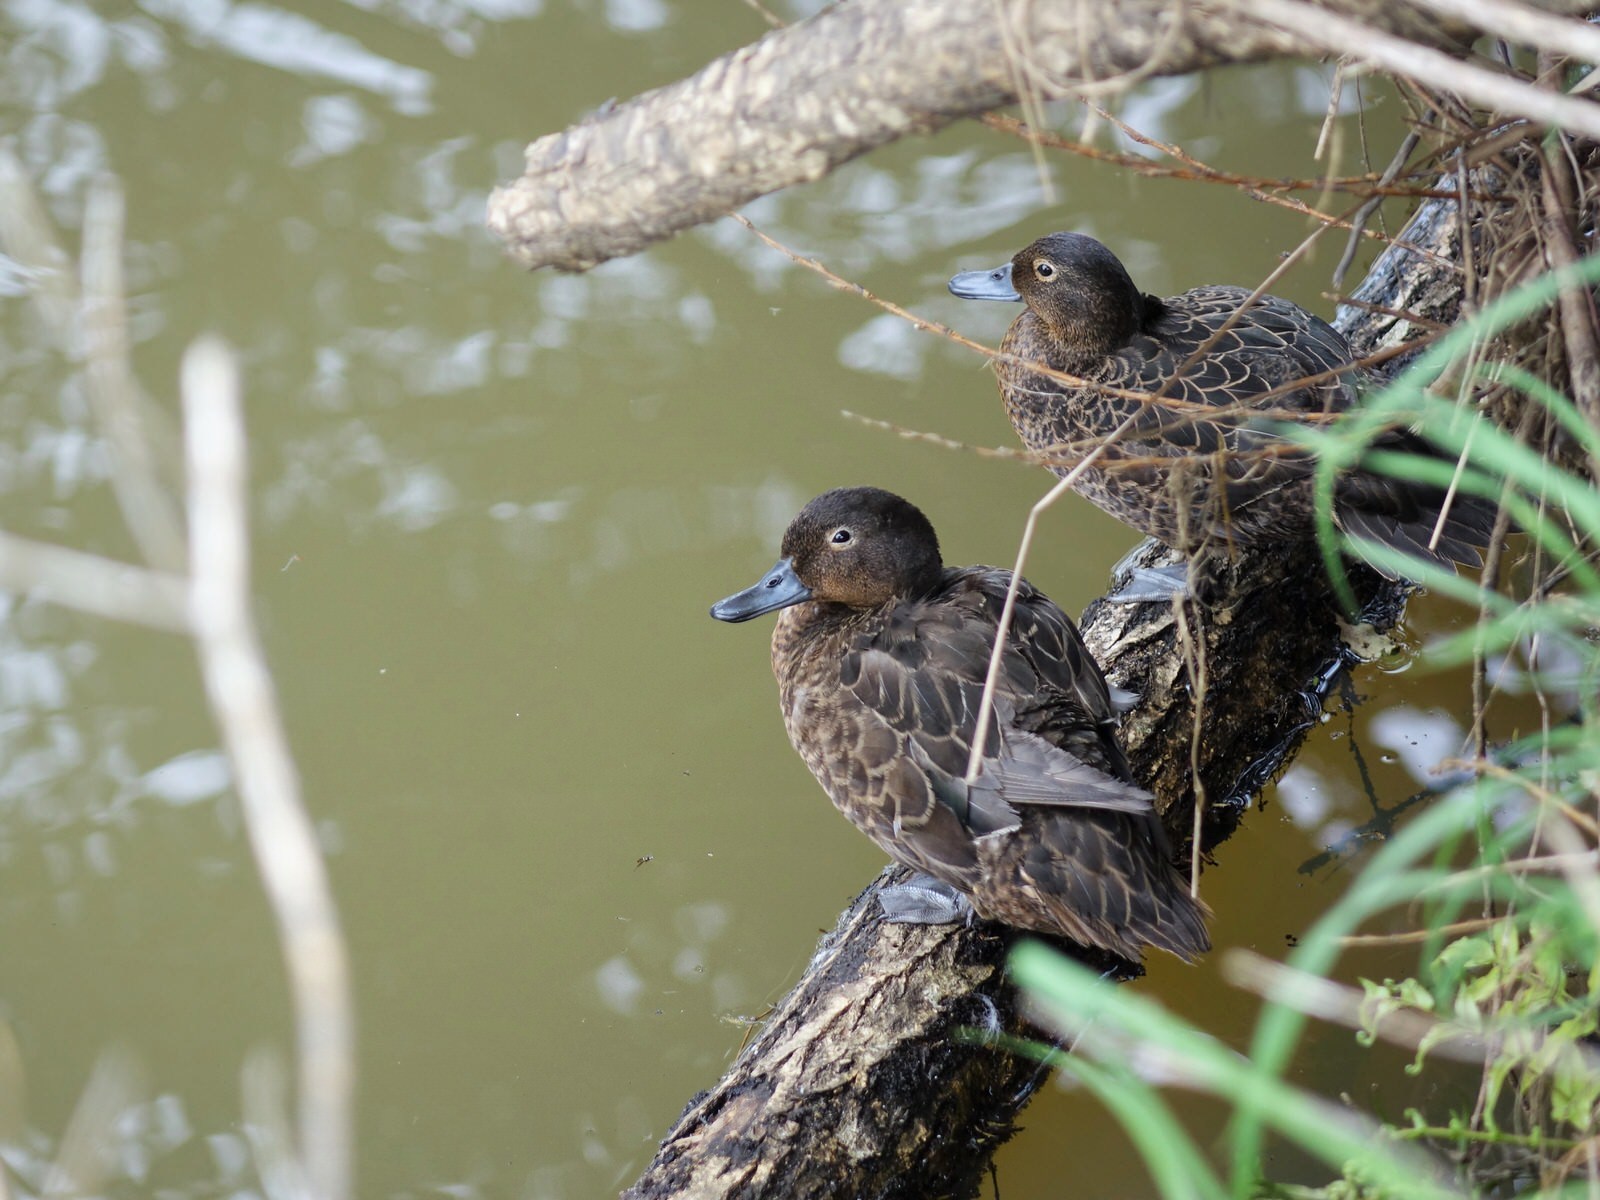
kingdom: Animalia
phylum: Chordata
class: Aves
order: Anseriformes
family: Anatidae
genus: Anas
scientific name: Anas chlorotis
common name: Brown teal
